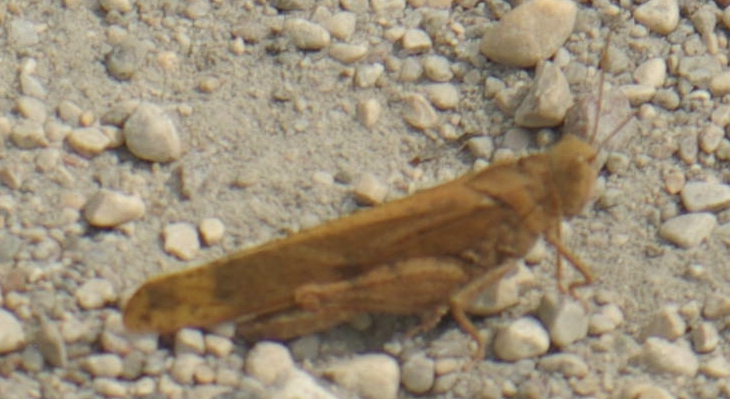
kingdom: Animalia
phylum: Arthropoda
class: Insecta
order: Orthoptera
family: Acrididae
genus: Dissosteira
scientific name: Dissosteira carolina
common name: Carolina grasshopper
